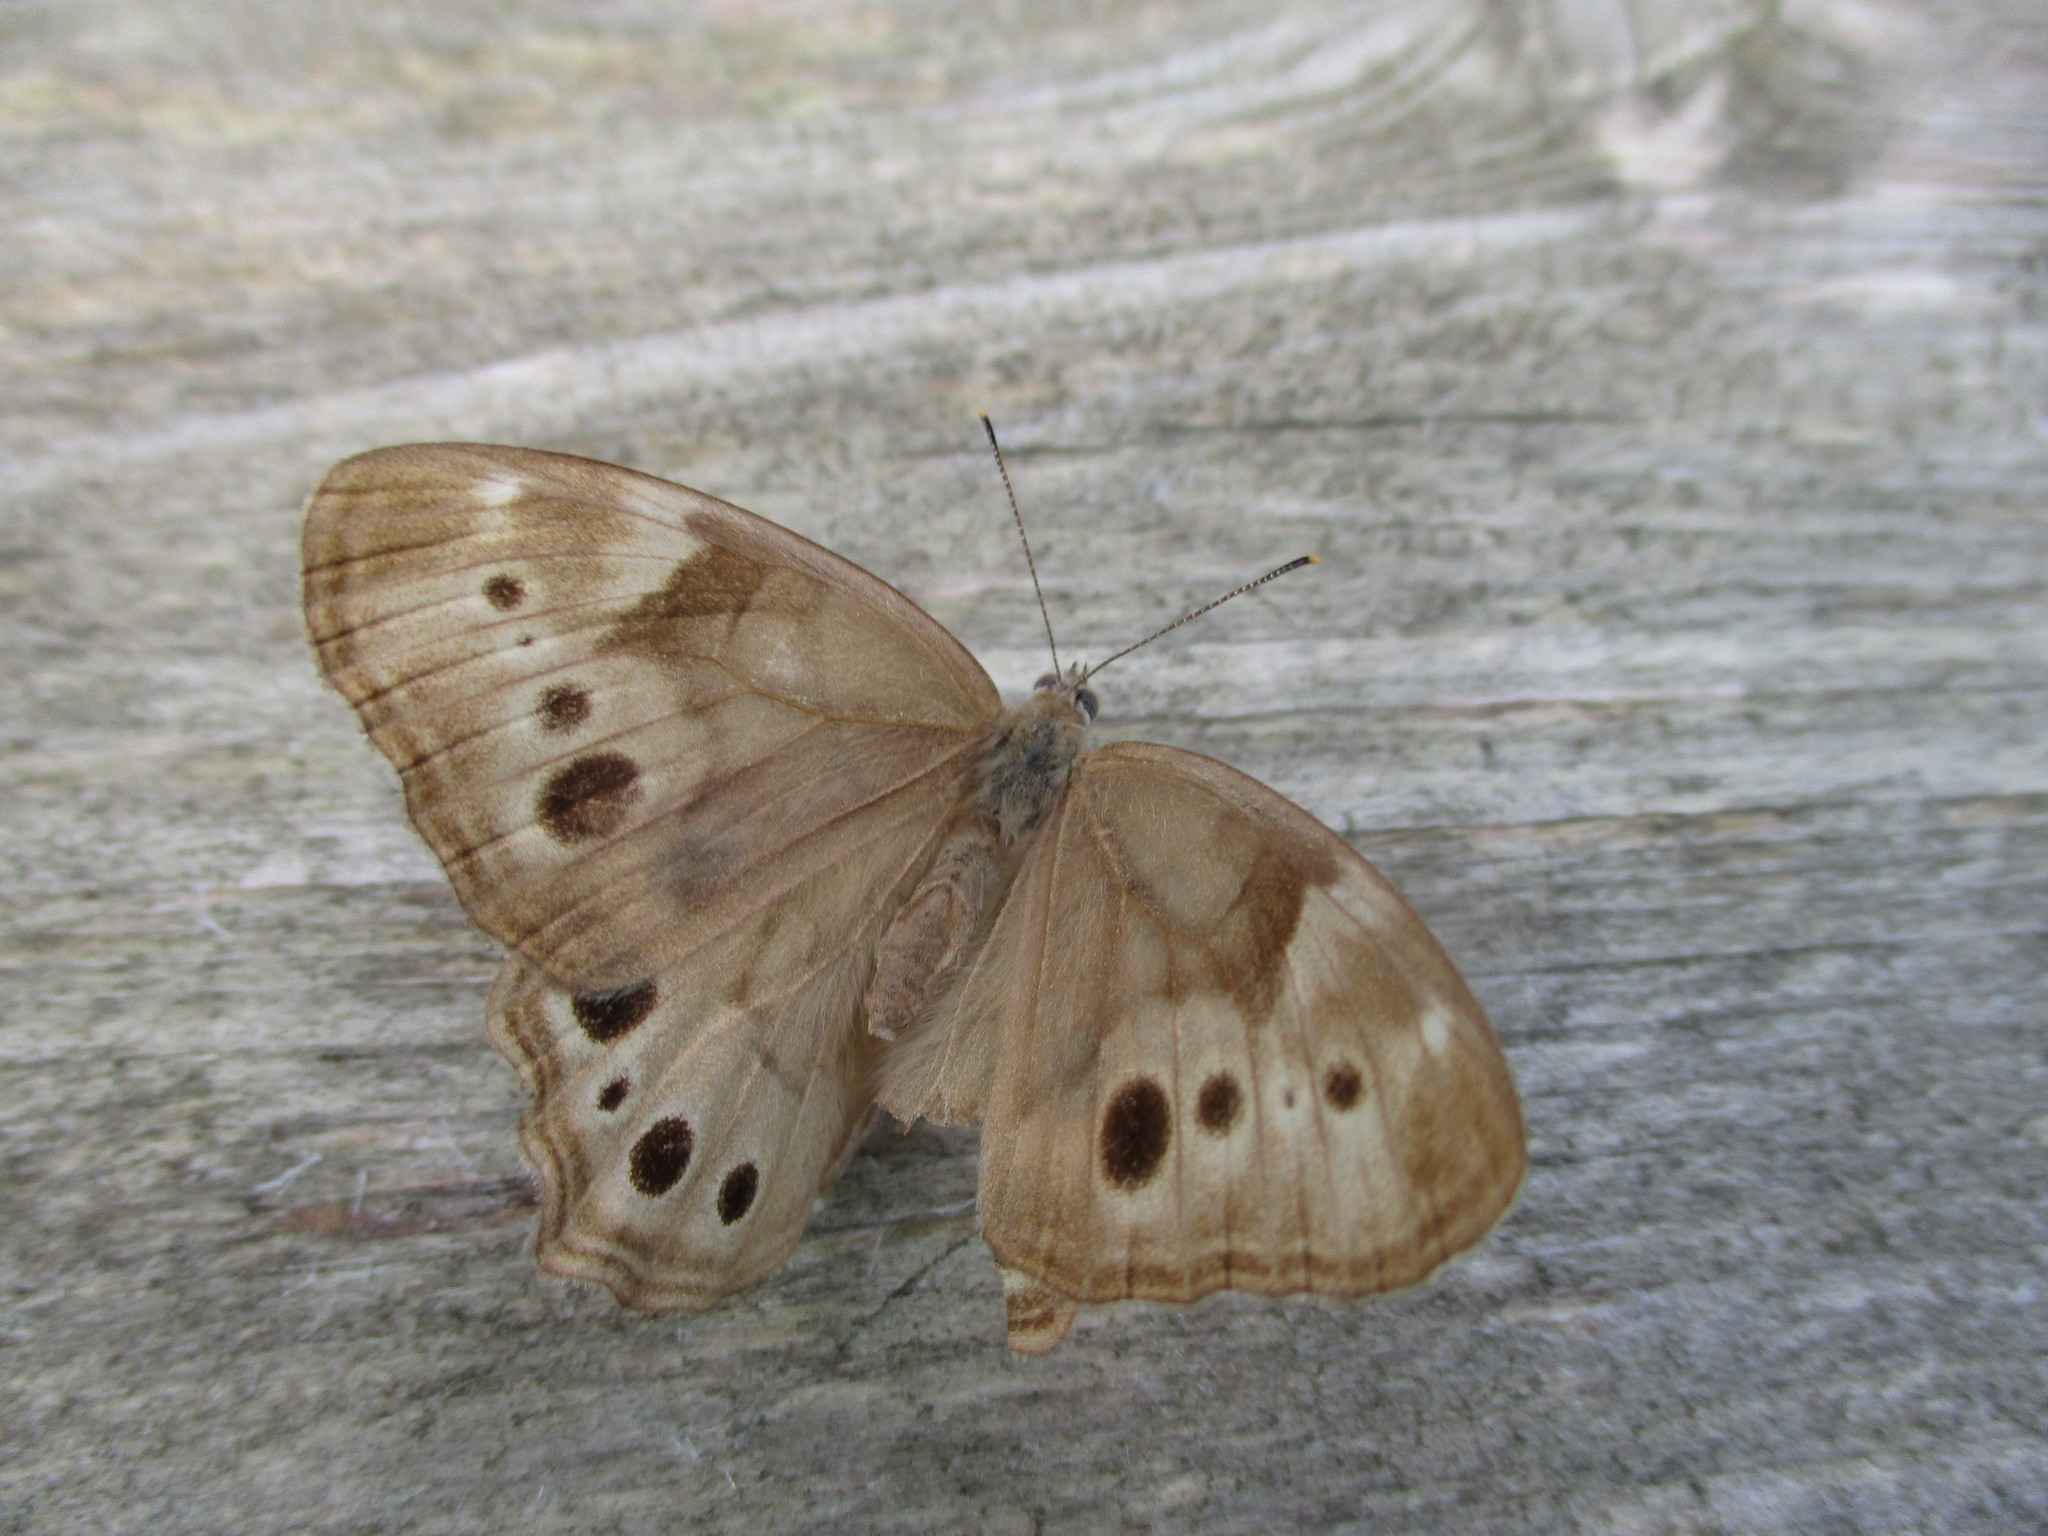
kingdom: Animalia
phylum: Arthropoda
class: Insecta
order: Lepidoptera
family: Nymphalidae
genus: Lethe
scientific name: Lethe anthedon
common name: Northern pearly-eye
